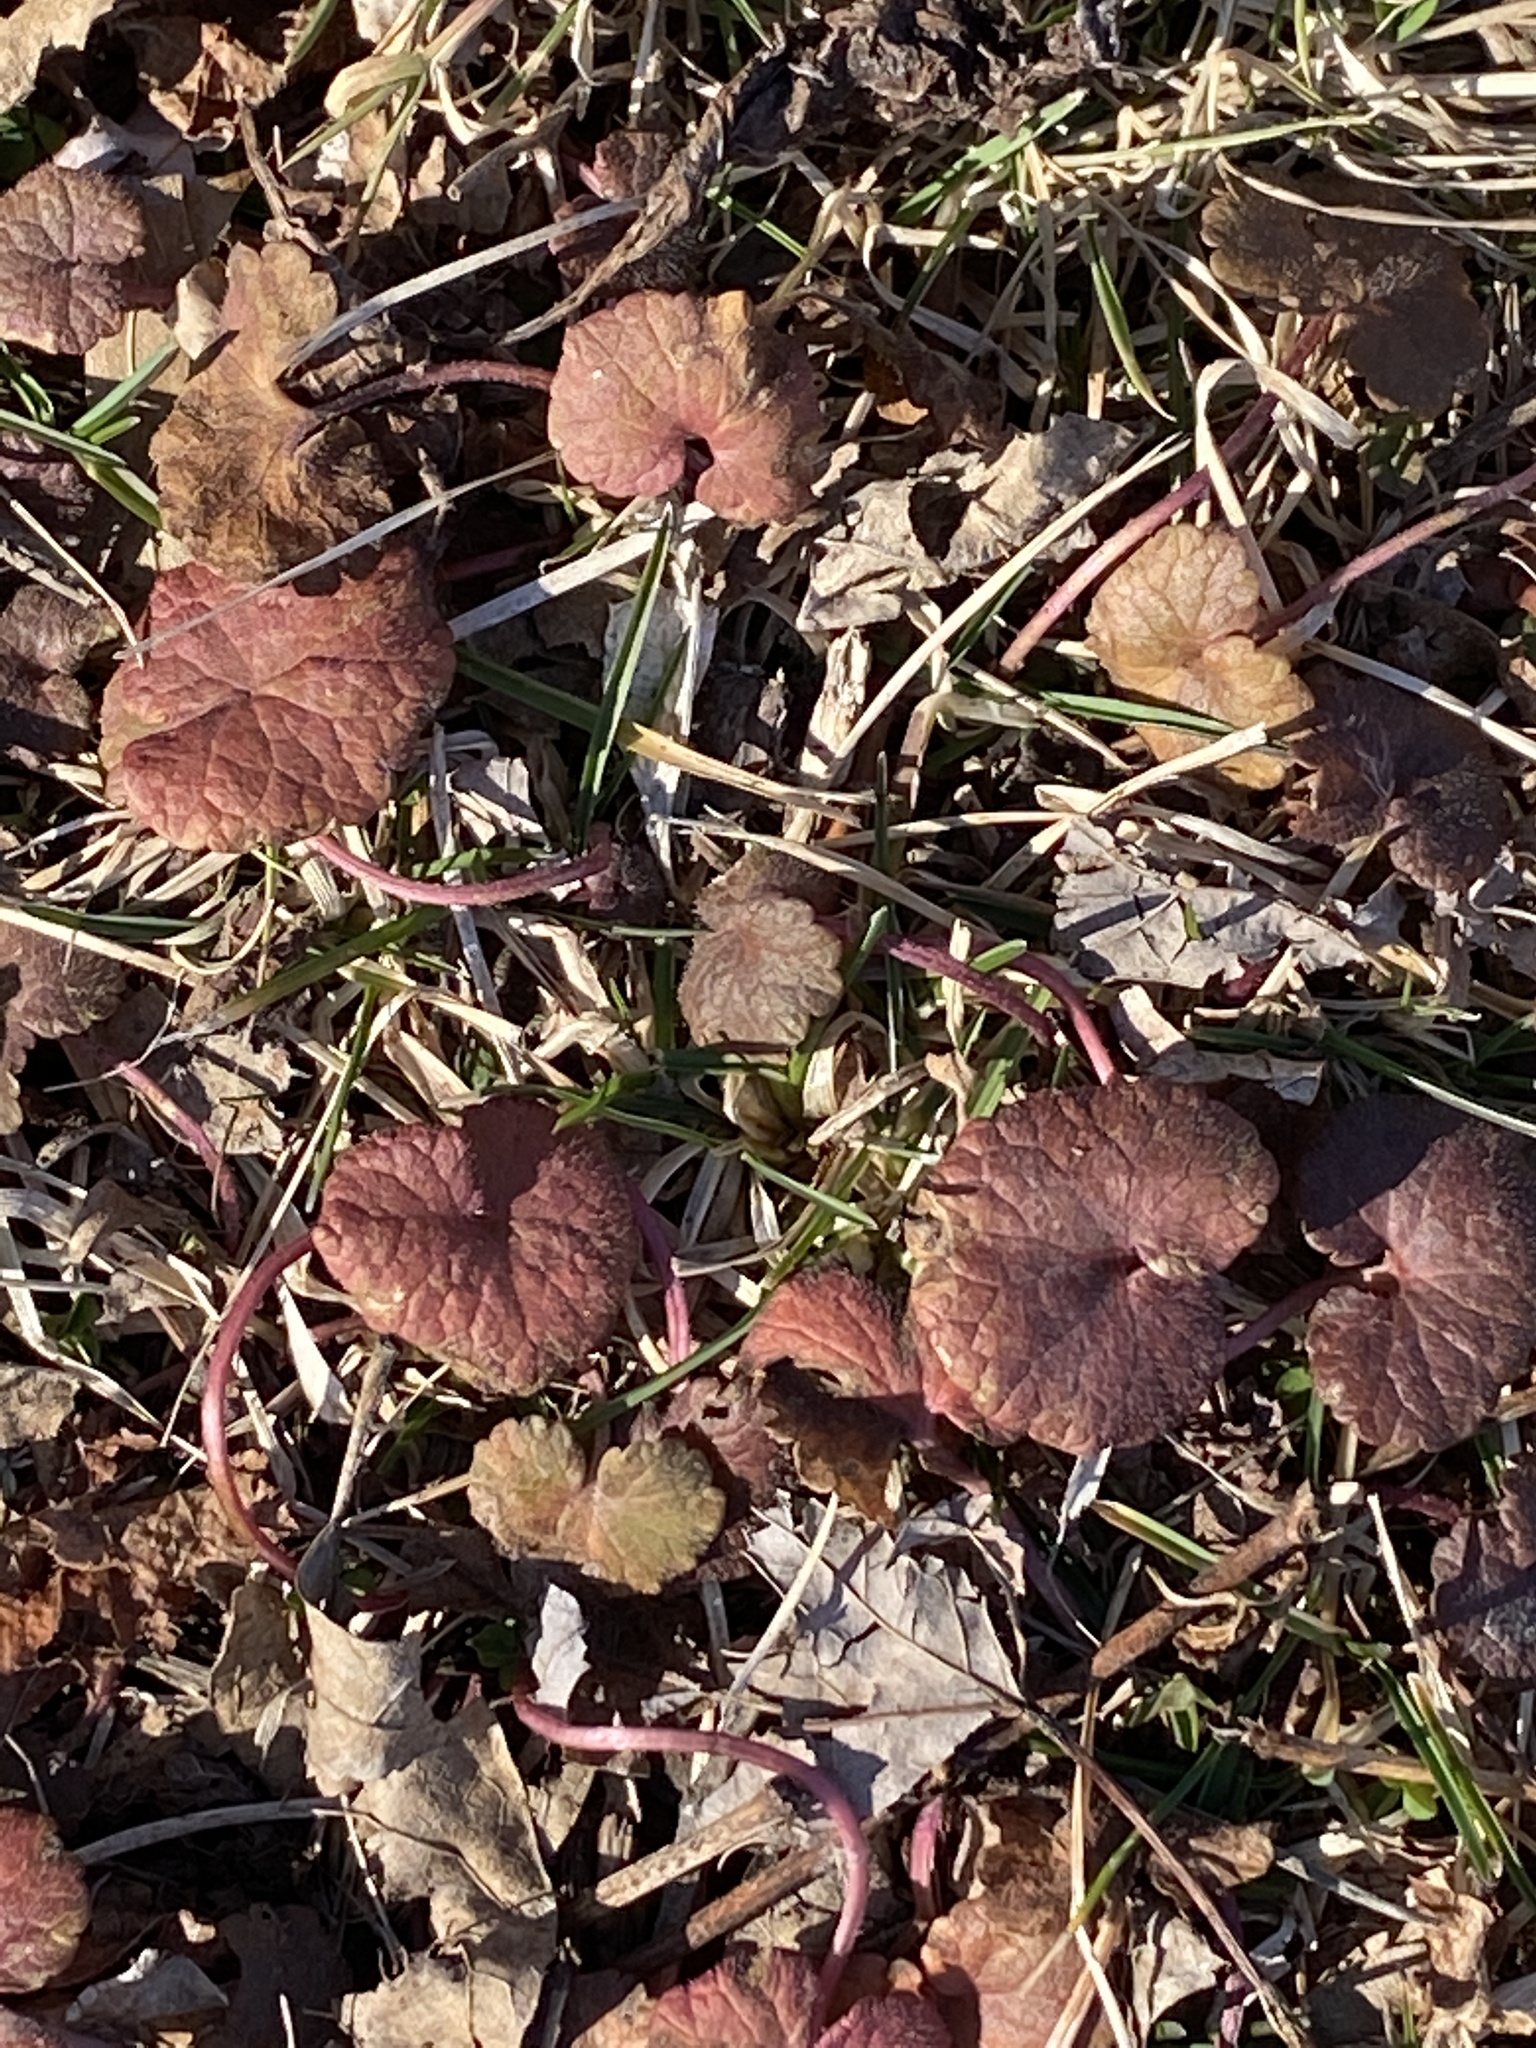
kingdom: Plantae
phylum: Tracheophyta
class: Magnoliopsida
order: Lamiales
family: Lamiaceae
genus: Glechoma
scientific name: Glechoma hederacea
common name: Ground ivy
